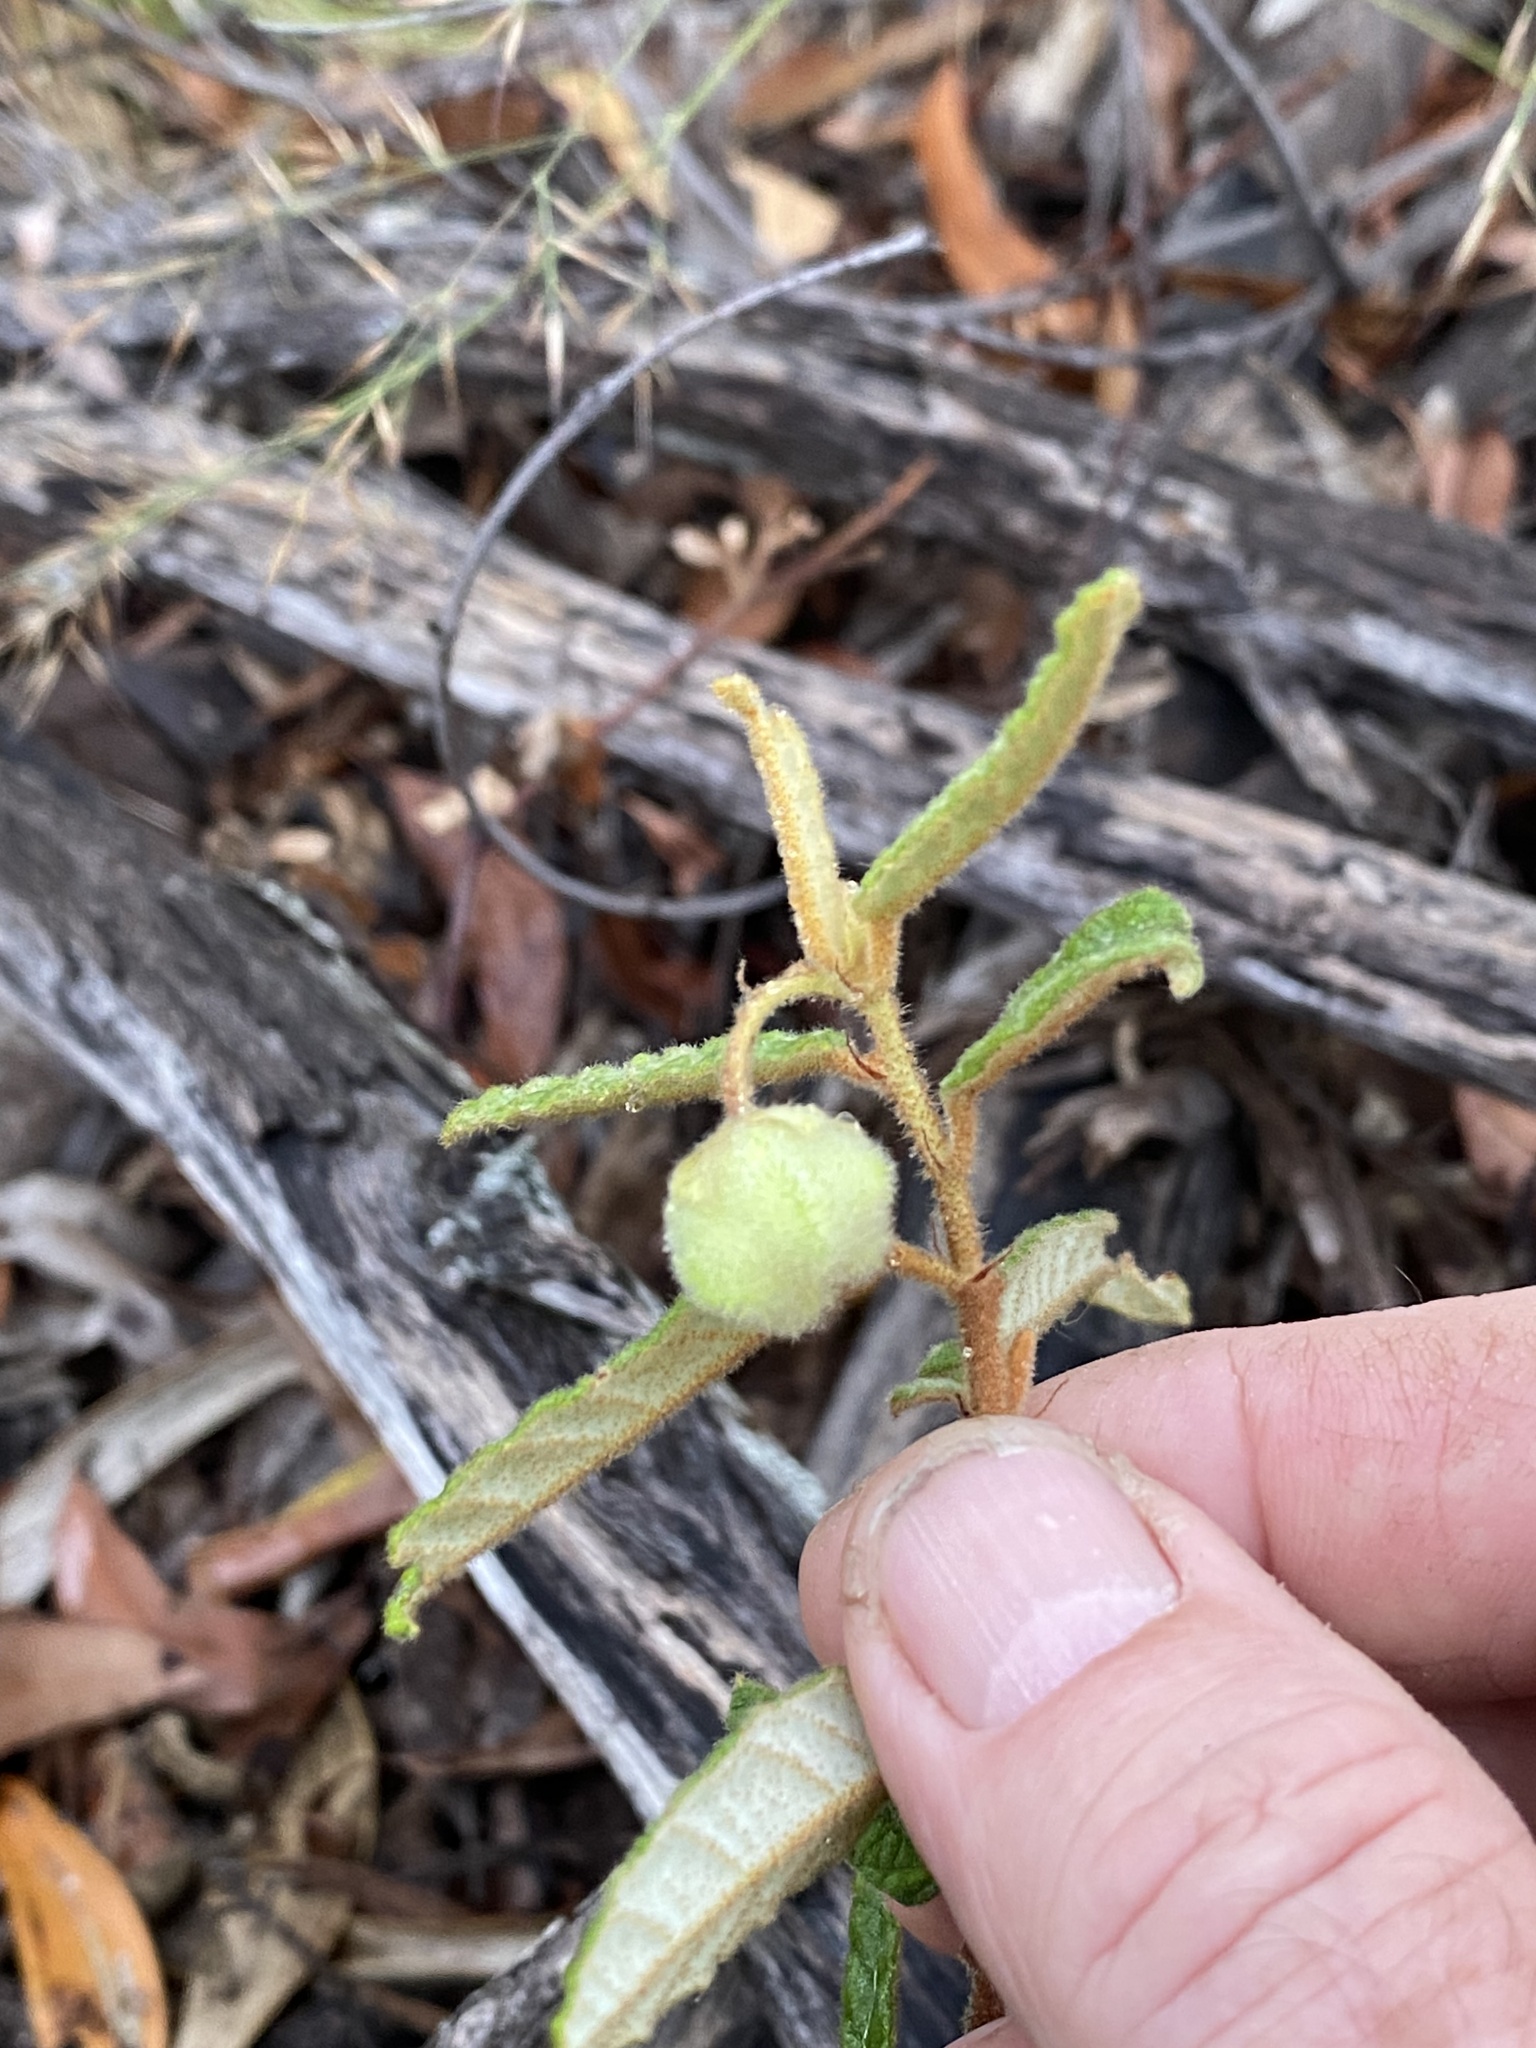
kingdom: Plantae
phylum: Tracheophyta
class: Magnoliopsida
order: Malvales
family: Malvaceae
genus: Seringia
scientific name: Seringia corollata
